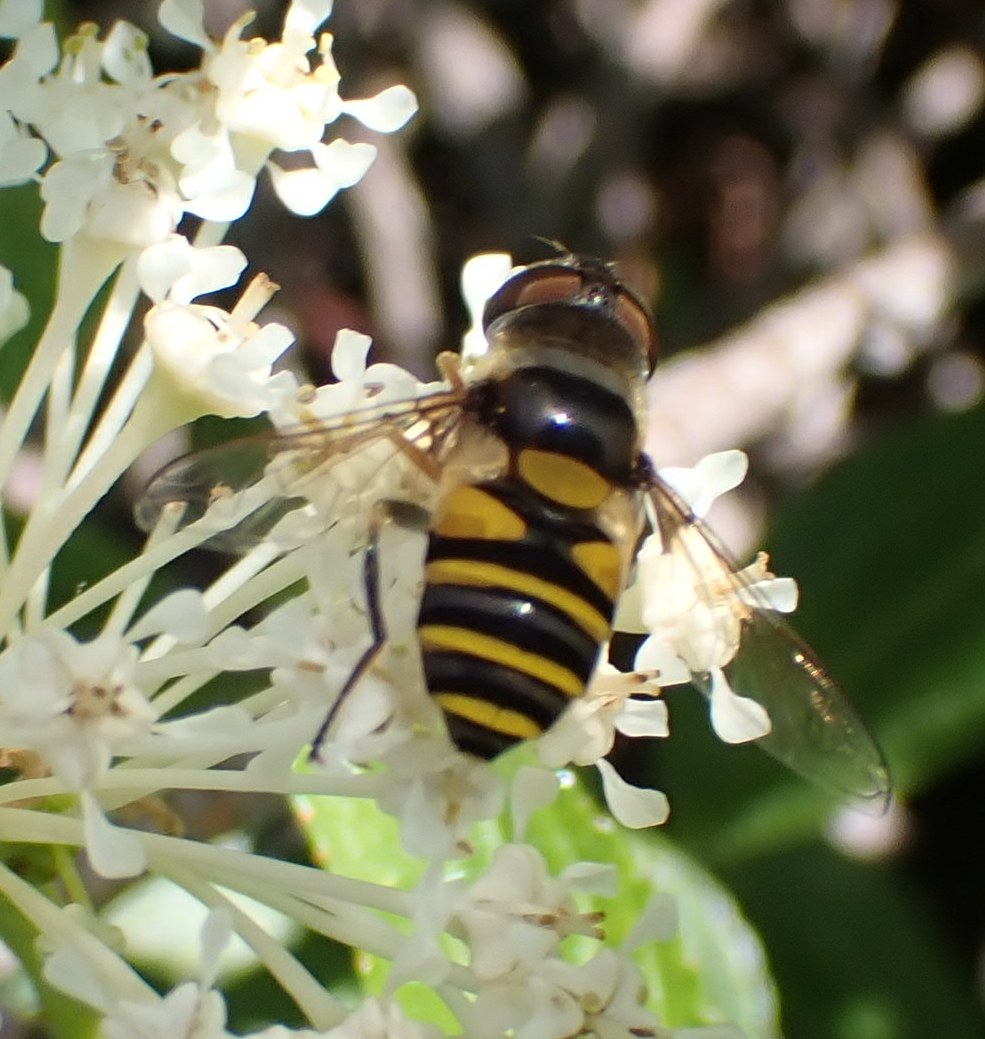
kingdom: Animalia
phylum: Arthropoda
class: Insecta
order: Diptera
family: Syrphidae
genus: Eristalis
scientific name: Eristalis transversa
